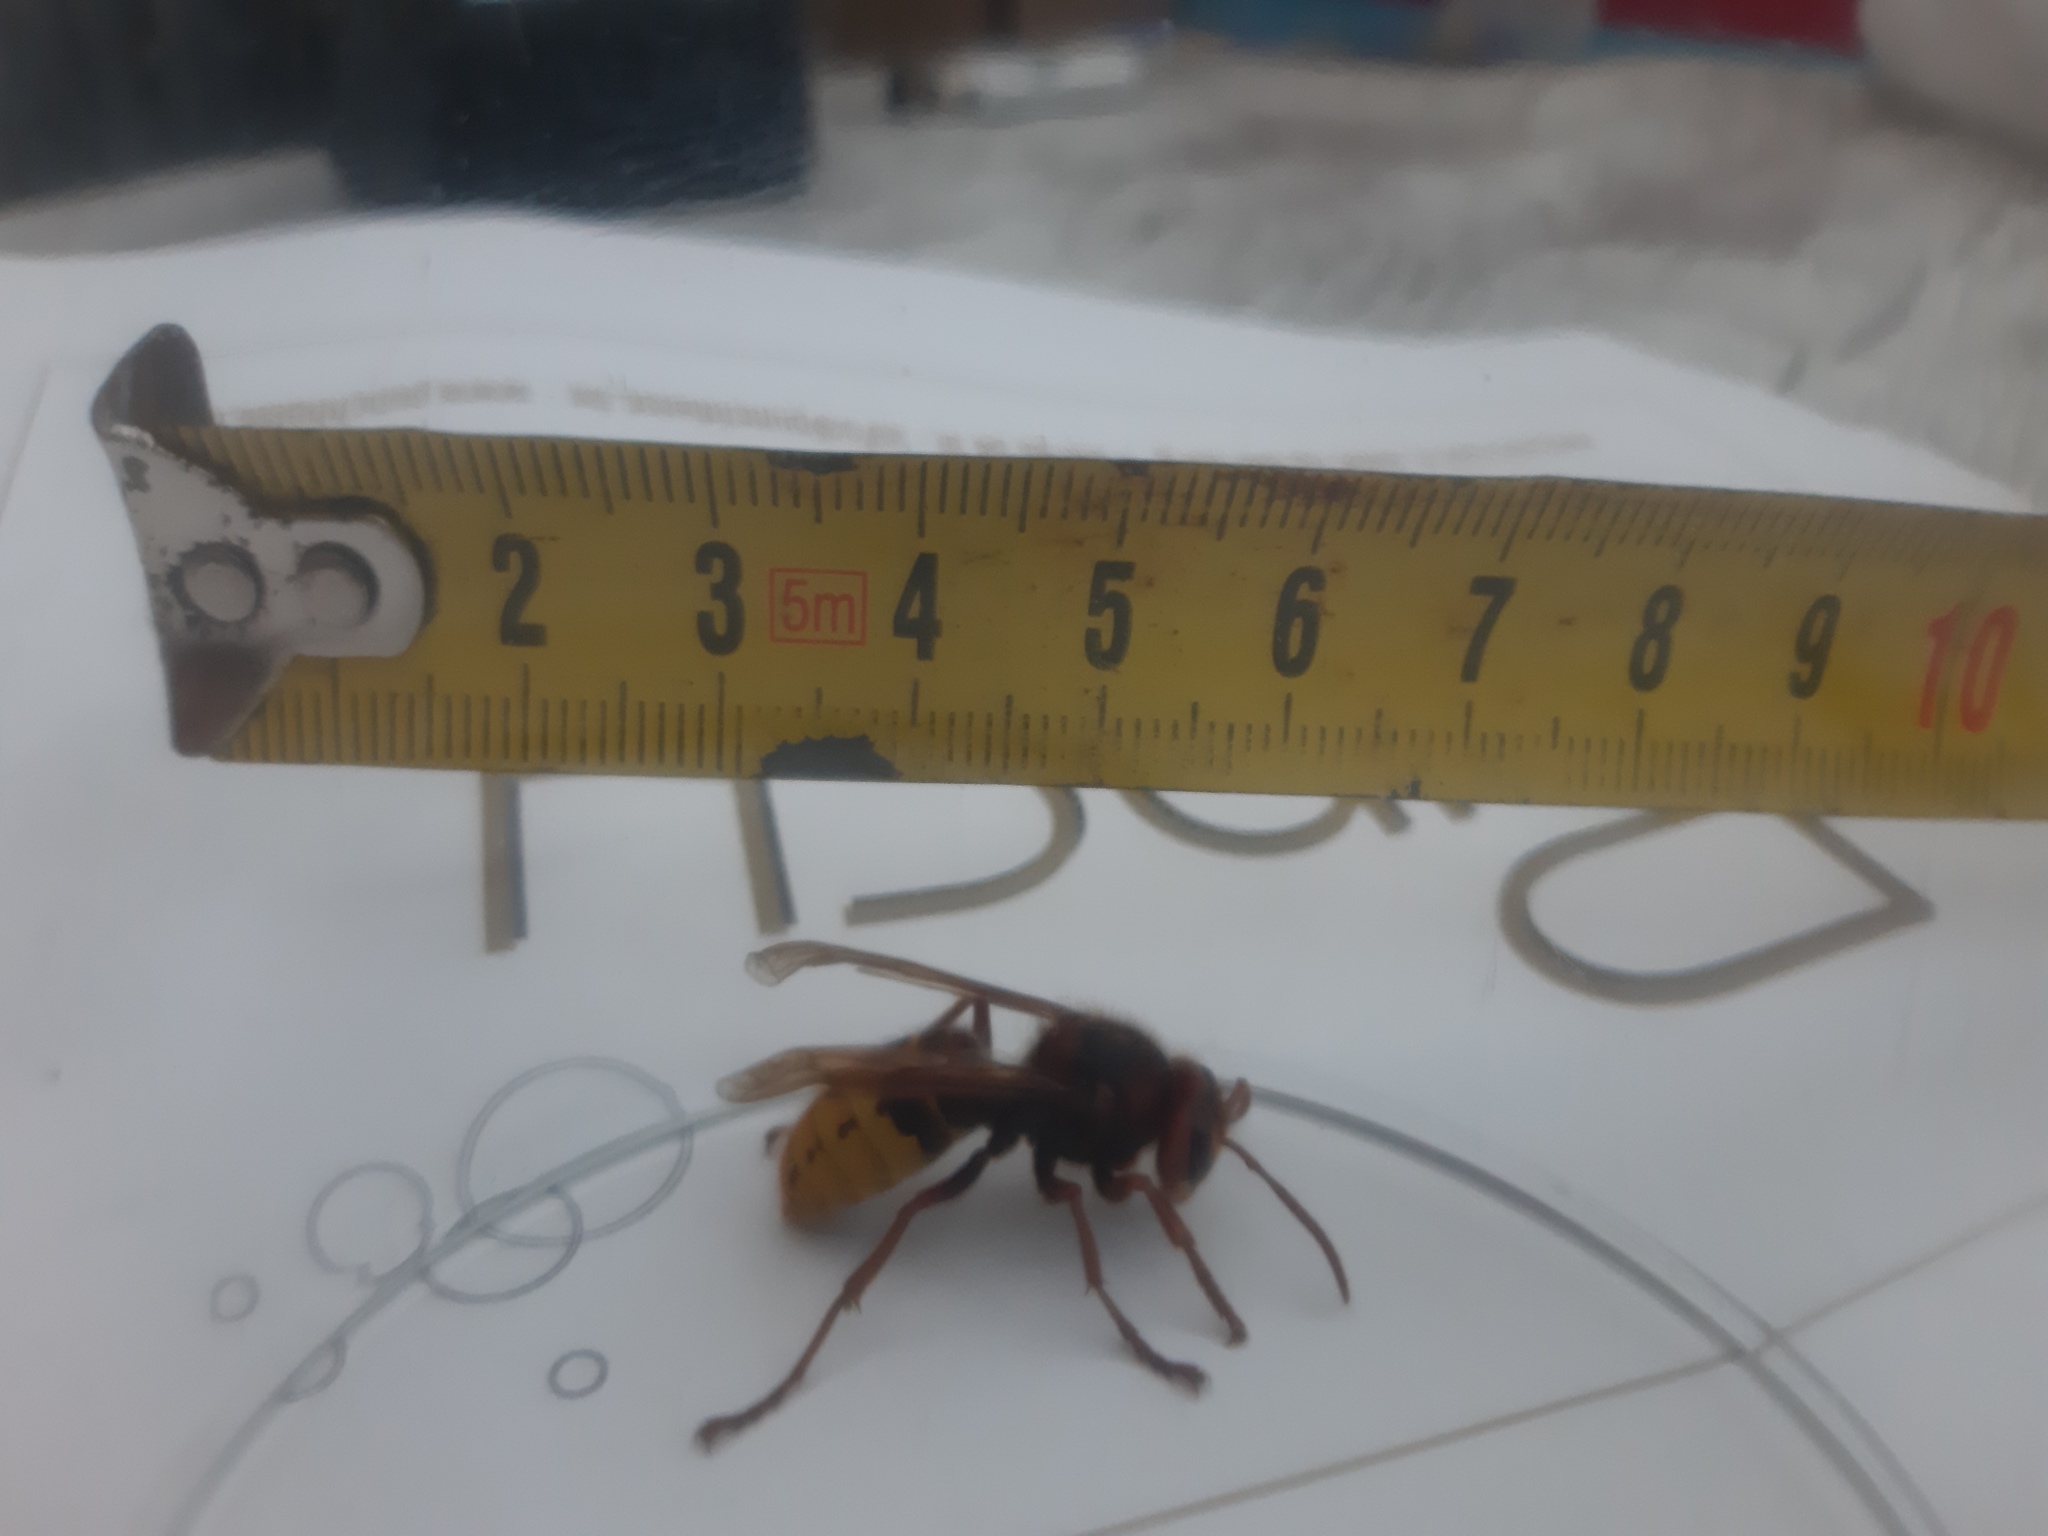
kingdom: Animalia
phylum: Arthropoda
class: Insecta
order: Hymenoptera
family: Vespidae
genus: Vespa
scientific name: Vespa crabro
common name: Hornet
